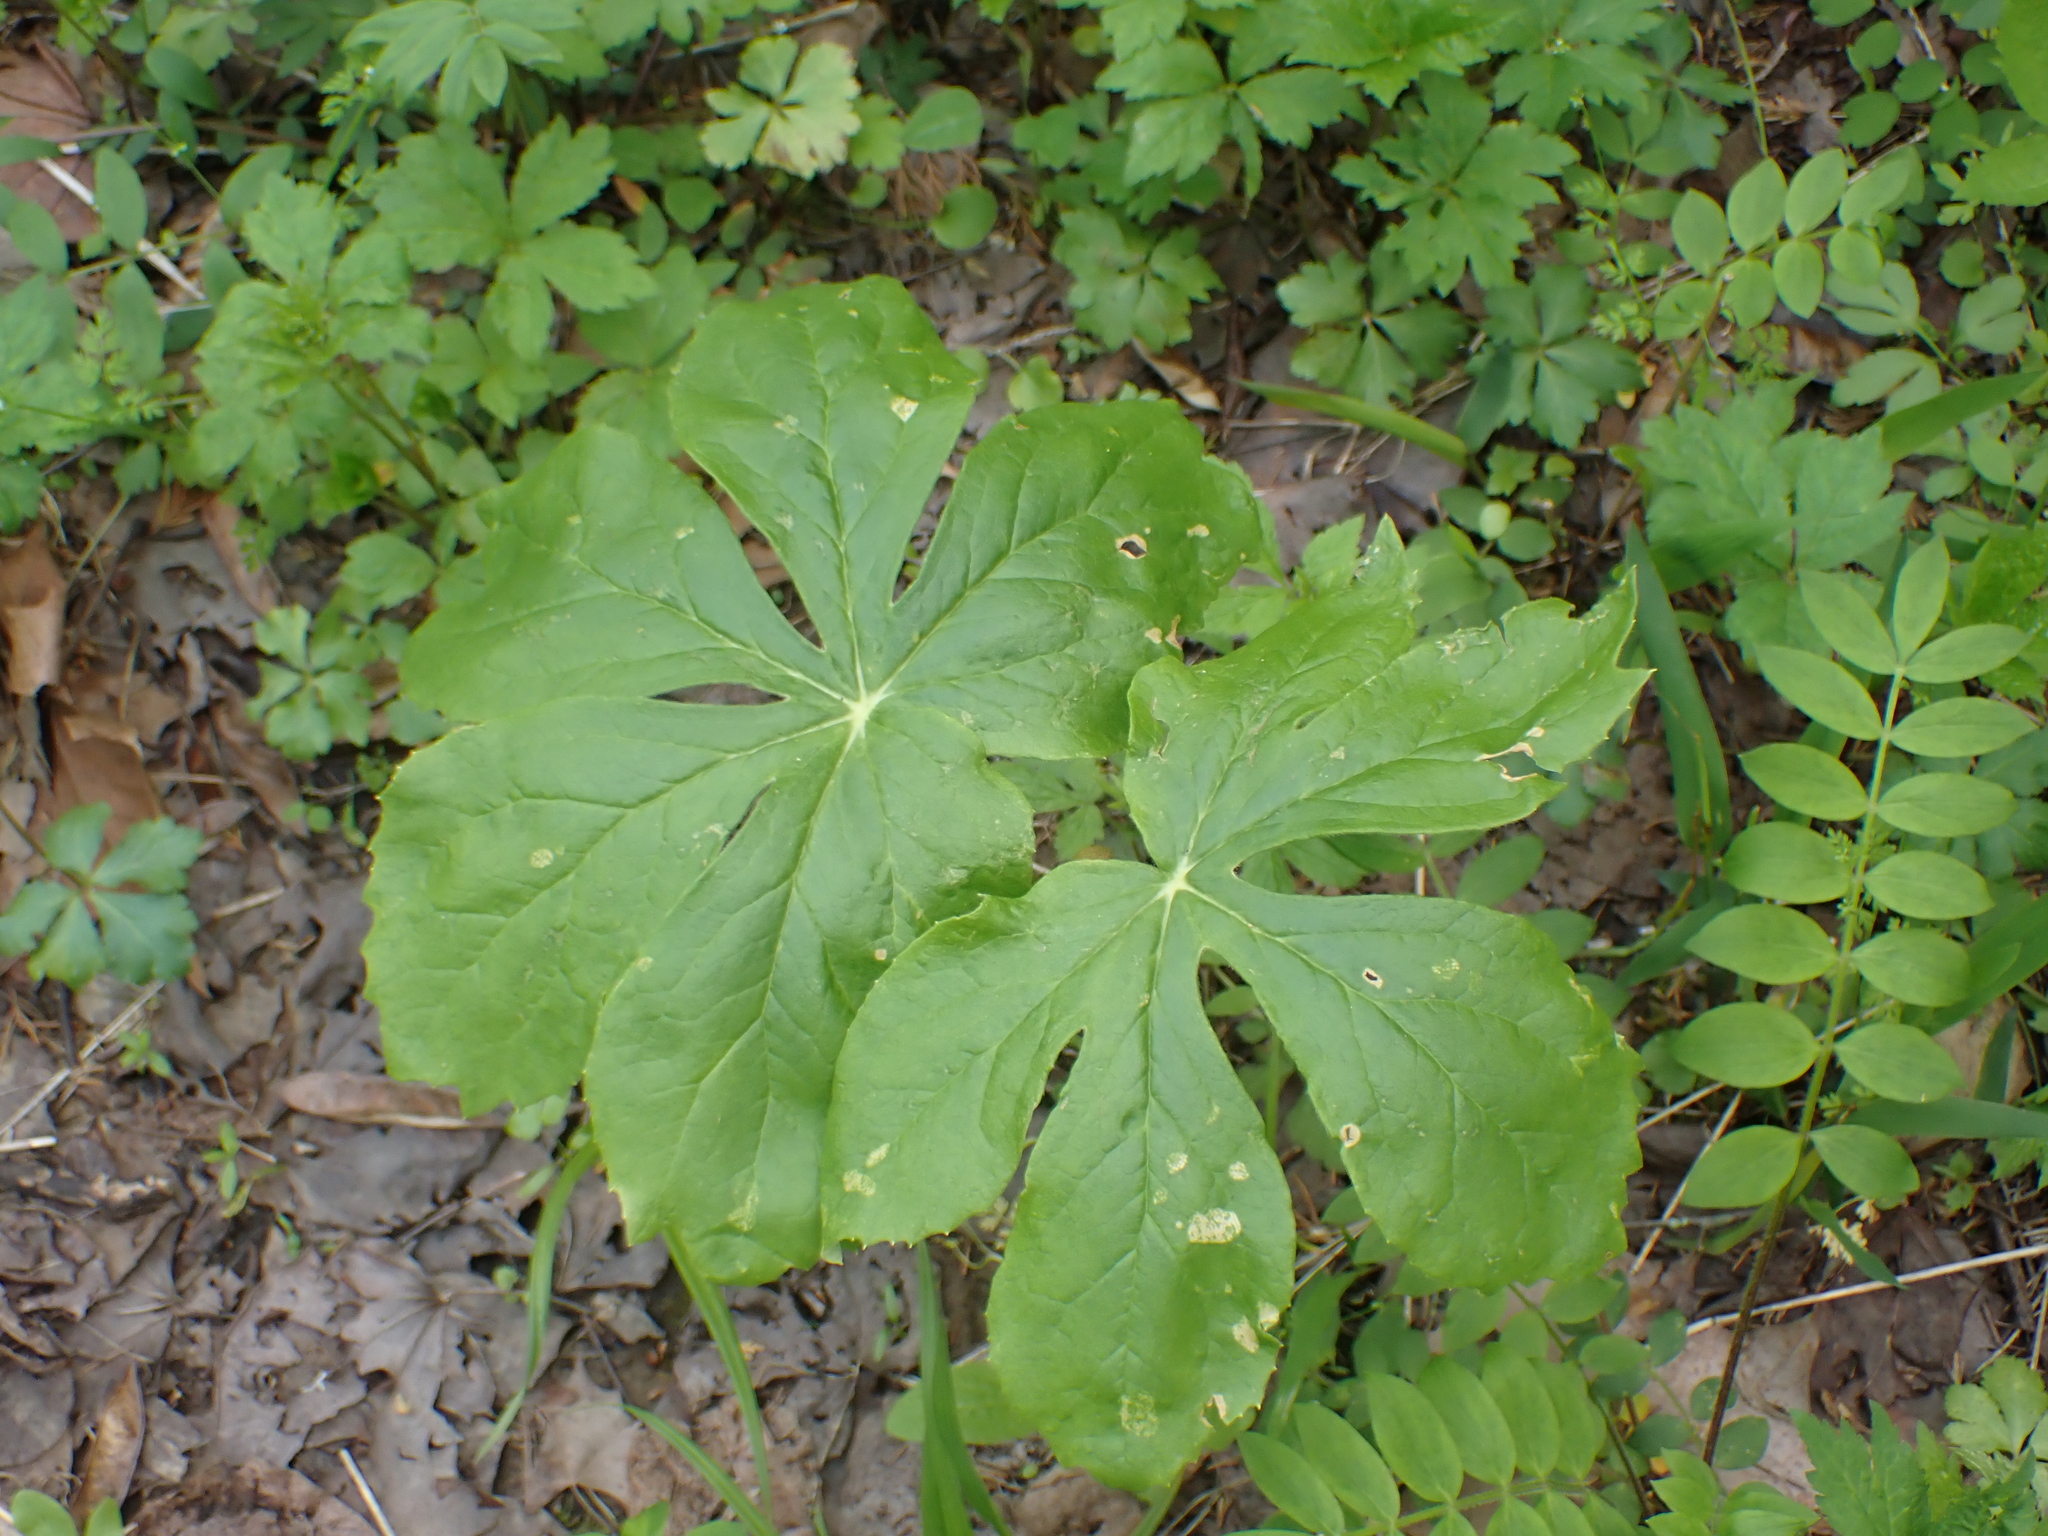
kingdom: Plantae
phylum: Tracheophyta
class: Magnoliopsida
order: Ranunculales
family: Berberidaceae
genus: Podophyllum
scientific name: Podophyllum peltatum
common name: Wild mandrake
